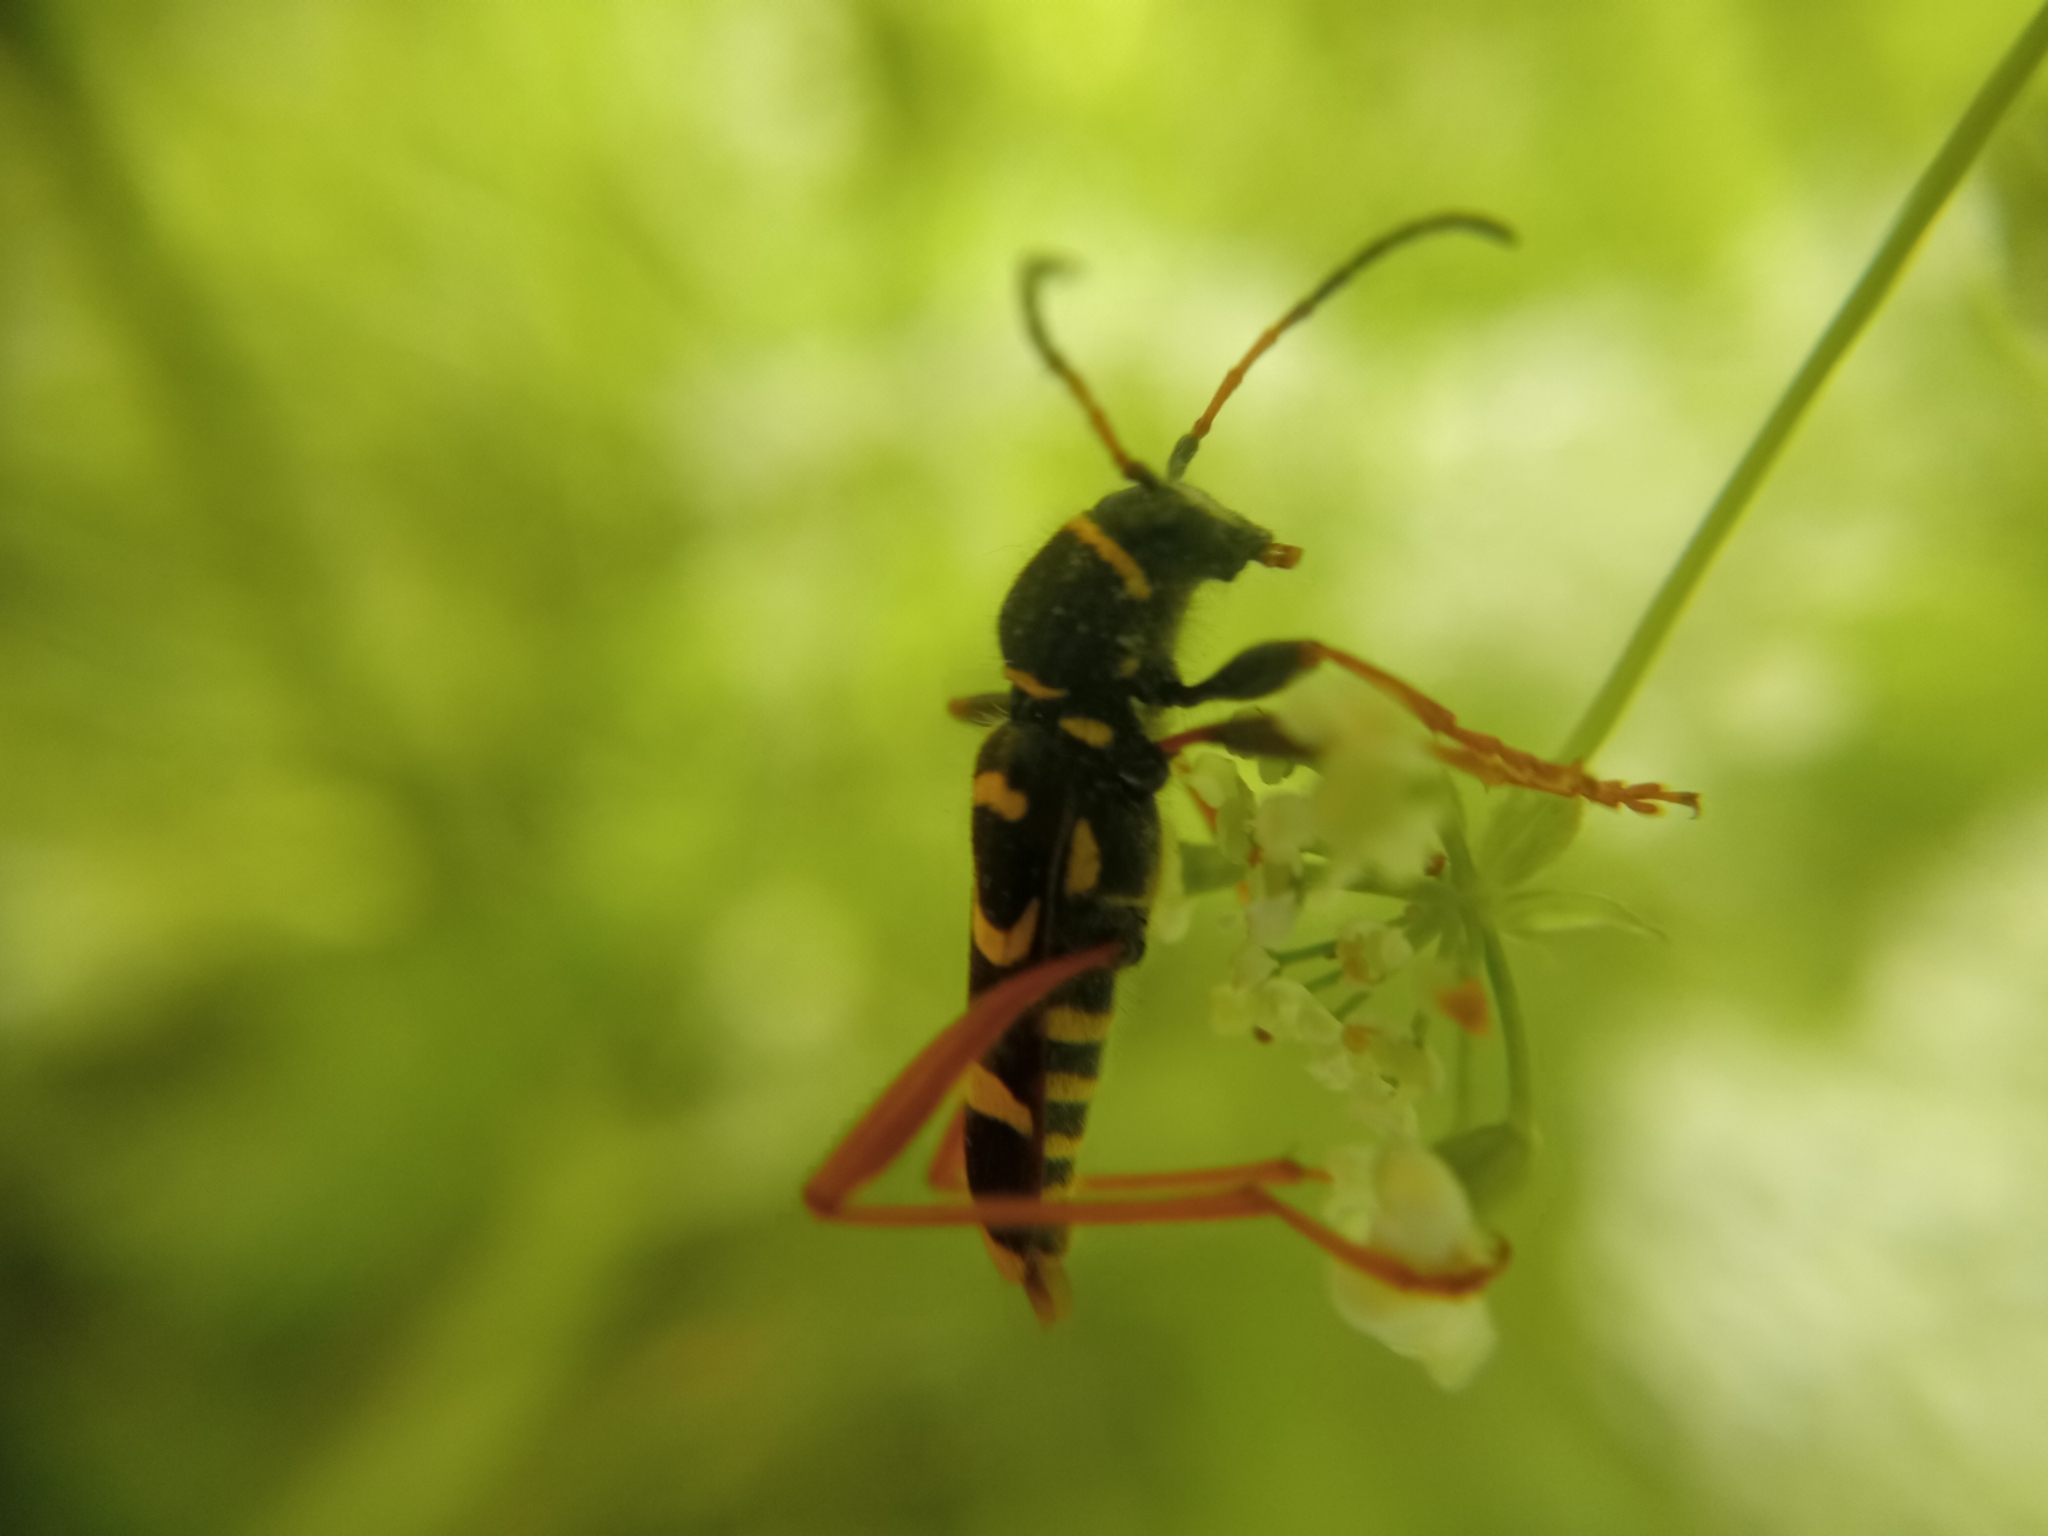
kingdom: Animalia
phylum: Arthropoda
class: Insecta
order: Coleoptera
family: Cerambycidae
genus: Clytus
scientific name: Clytus arietis
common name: Wasp beetle
